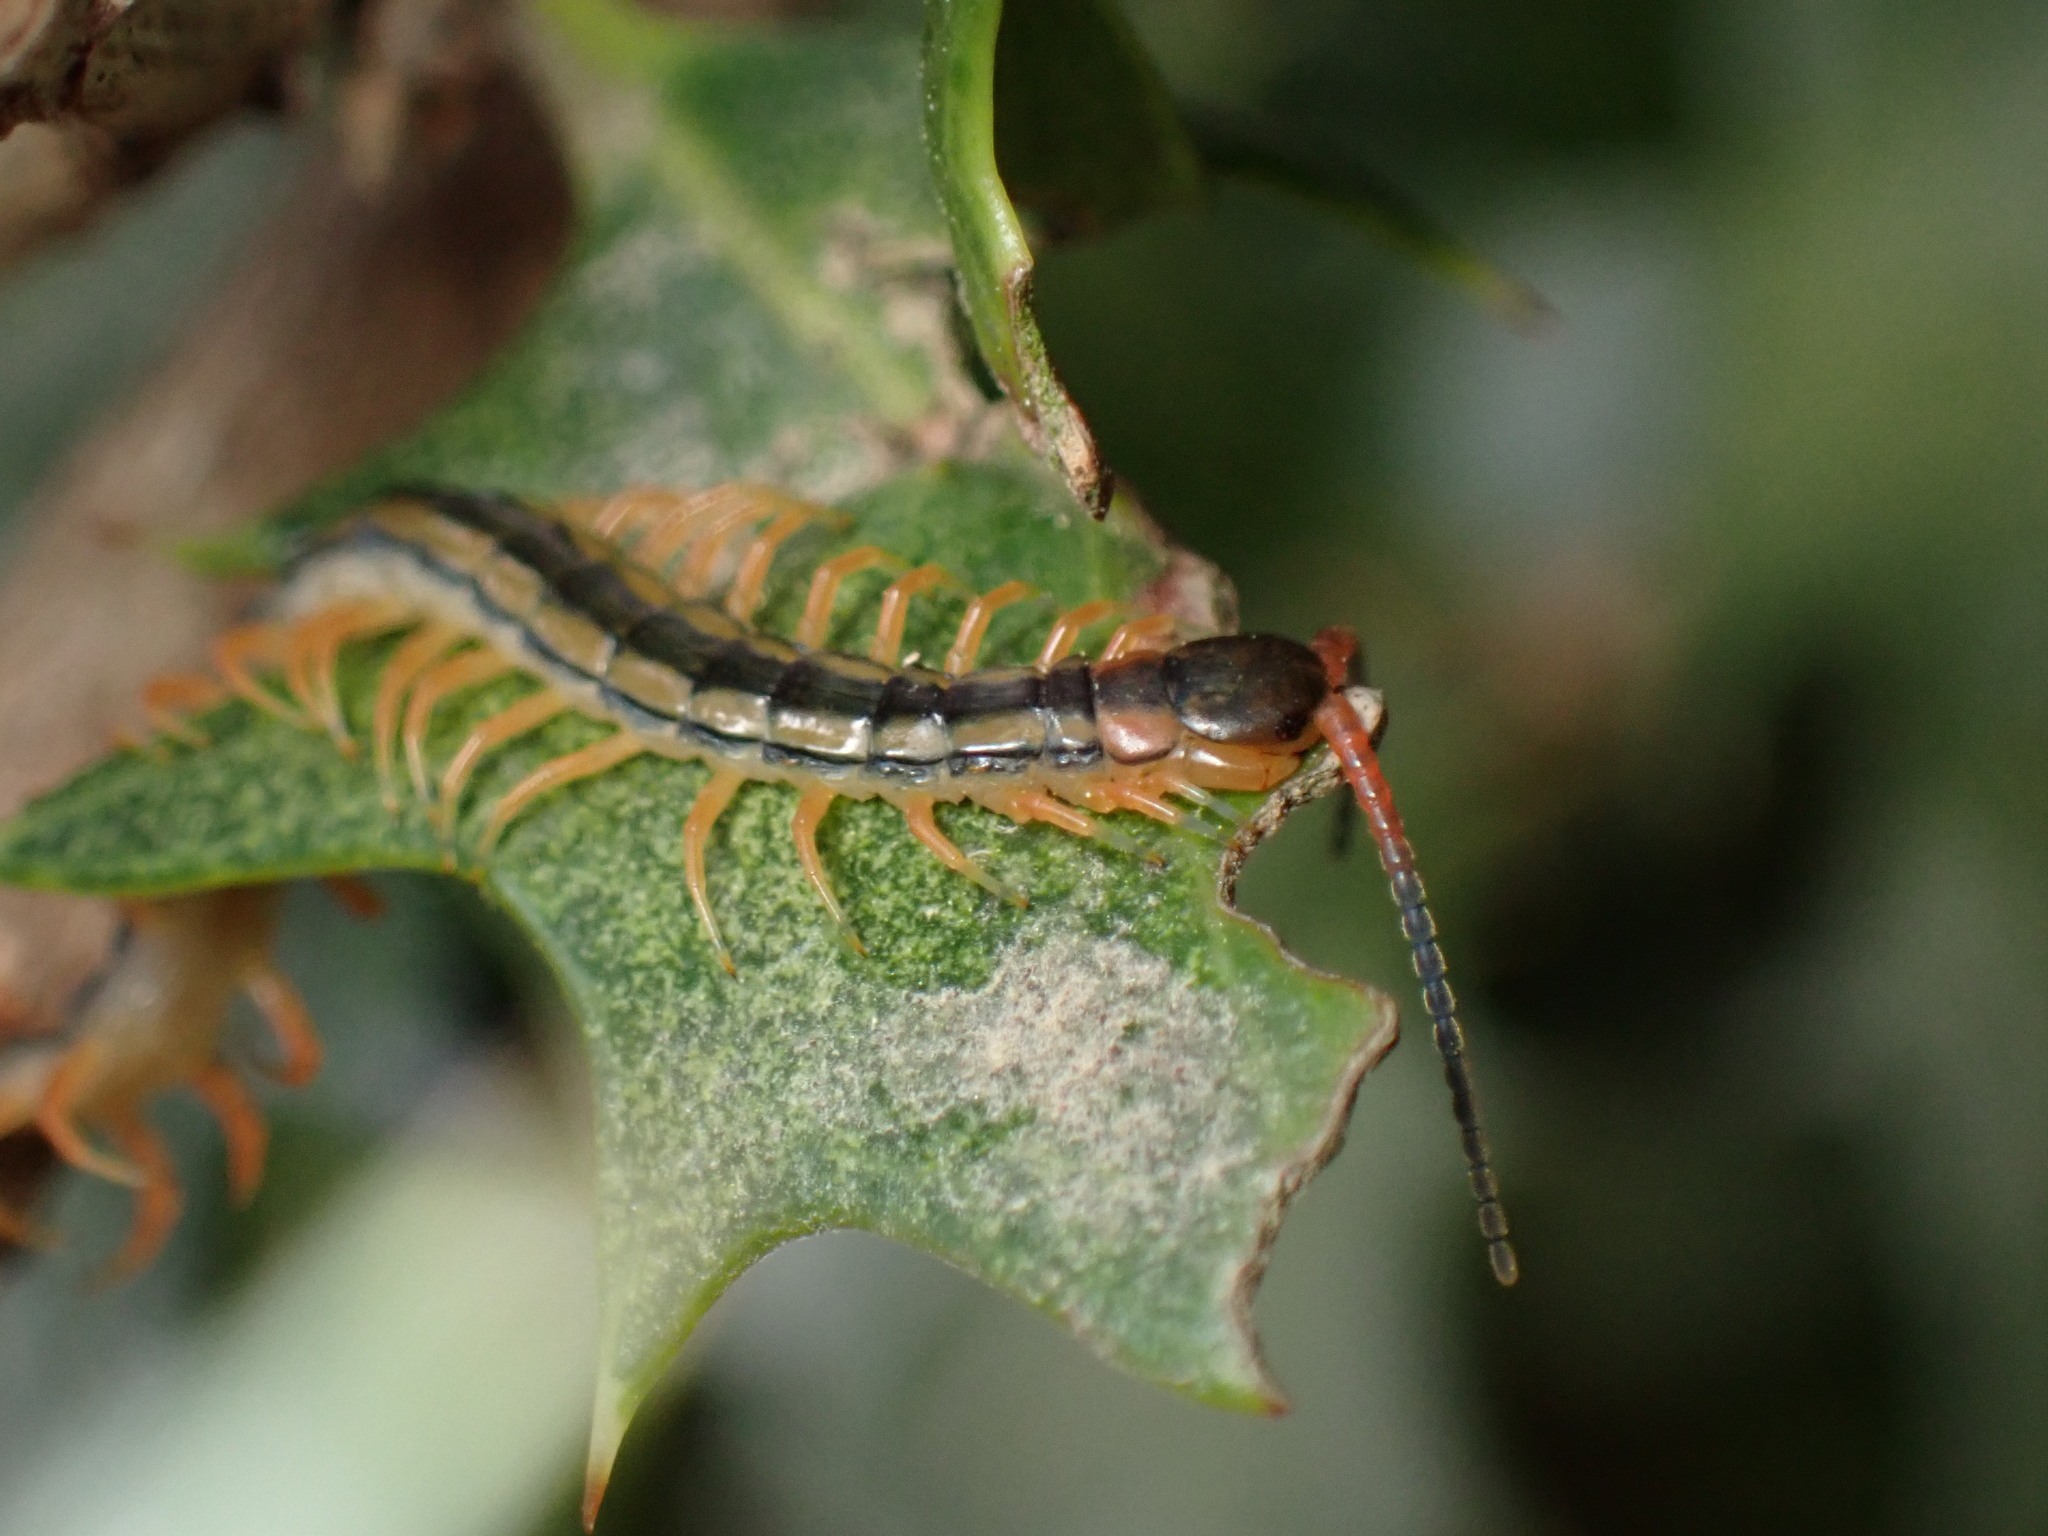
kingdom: Animalia
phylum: Arthropoda
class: Chilopoda
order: Scolopendromorpha
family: Scolopendridae
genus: Scolopendra
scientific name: Scolopendra mutilans
